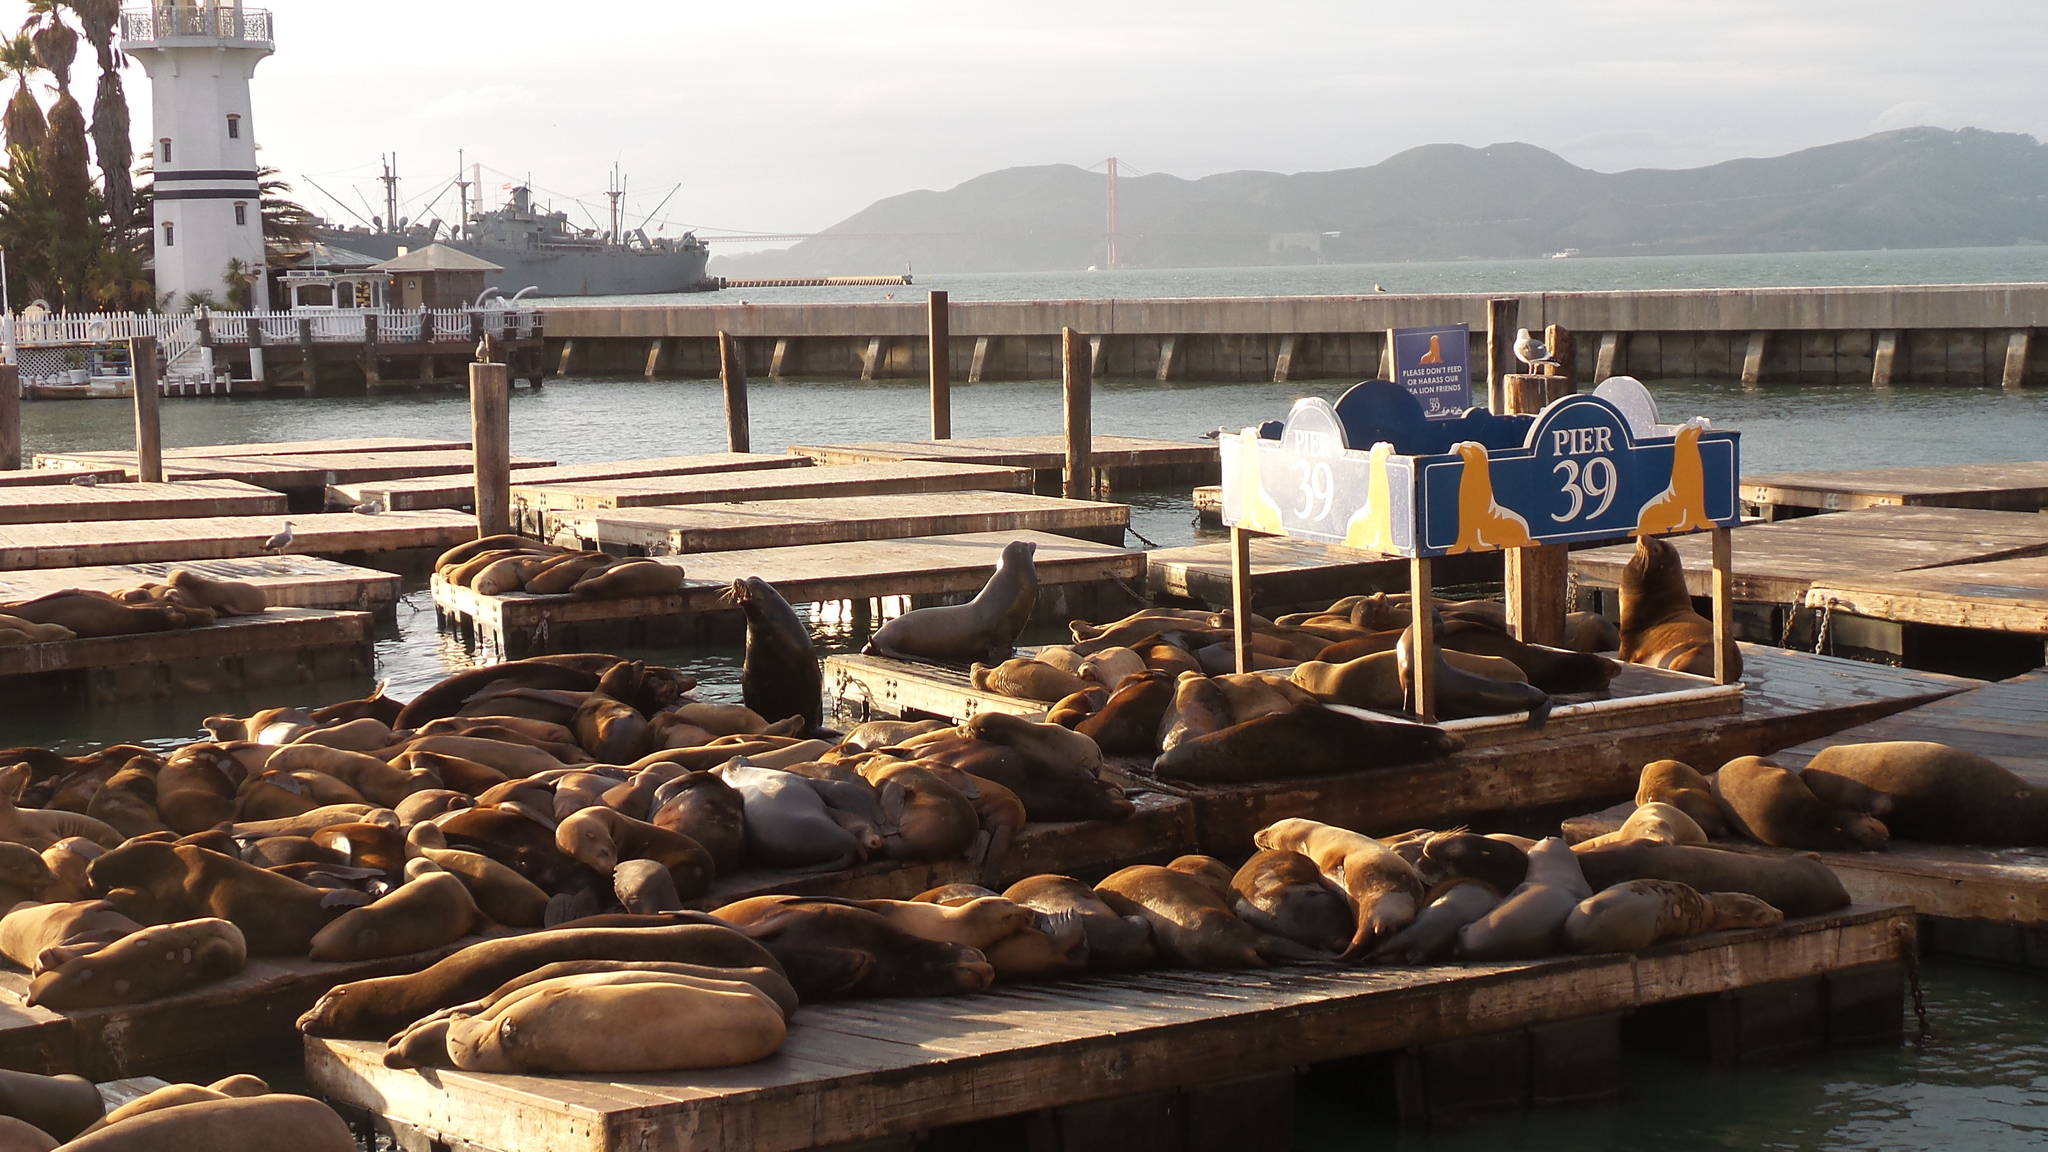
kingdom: Animalia
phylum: Chordata
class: Mammalia
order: Carnivora
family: Otariidae
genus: Zalophus
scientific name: Zalophus californianus
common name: California sea lion
